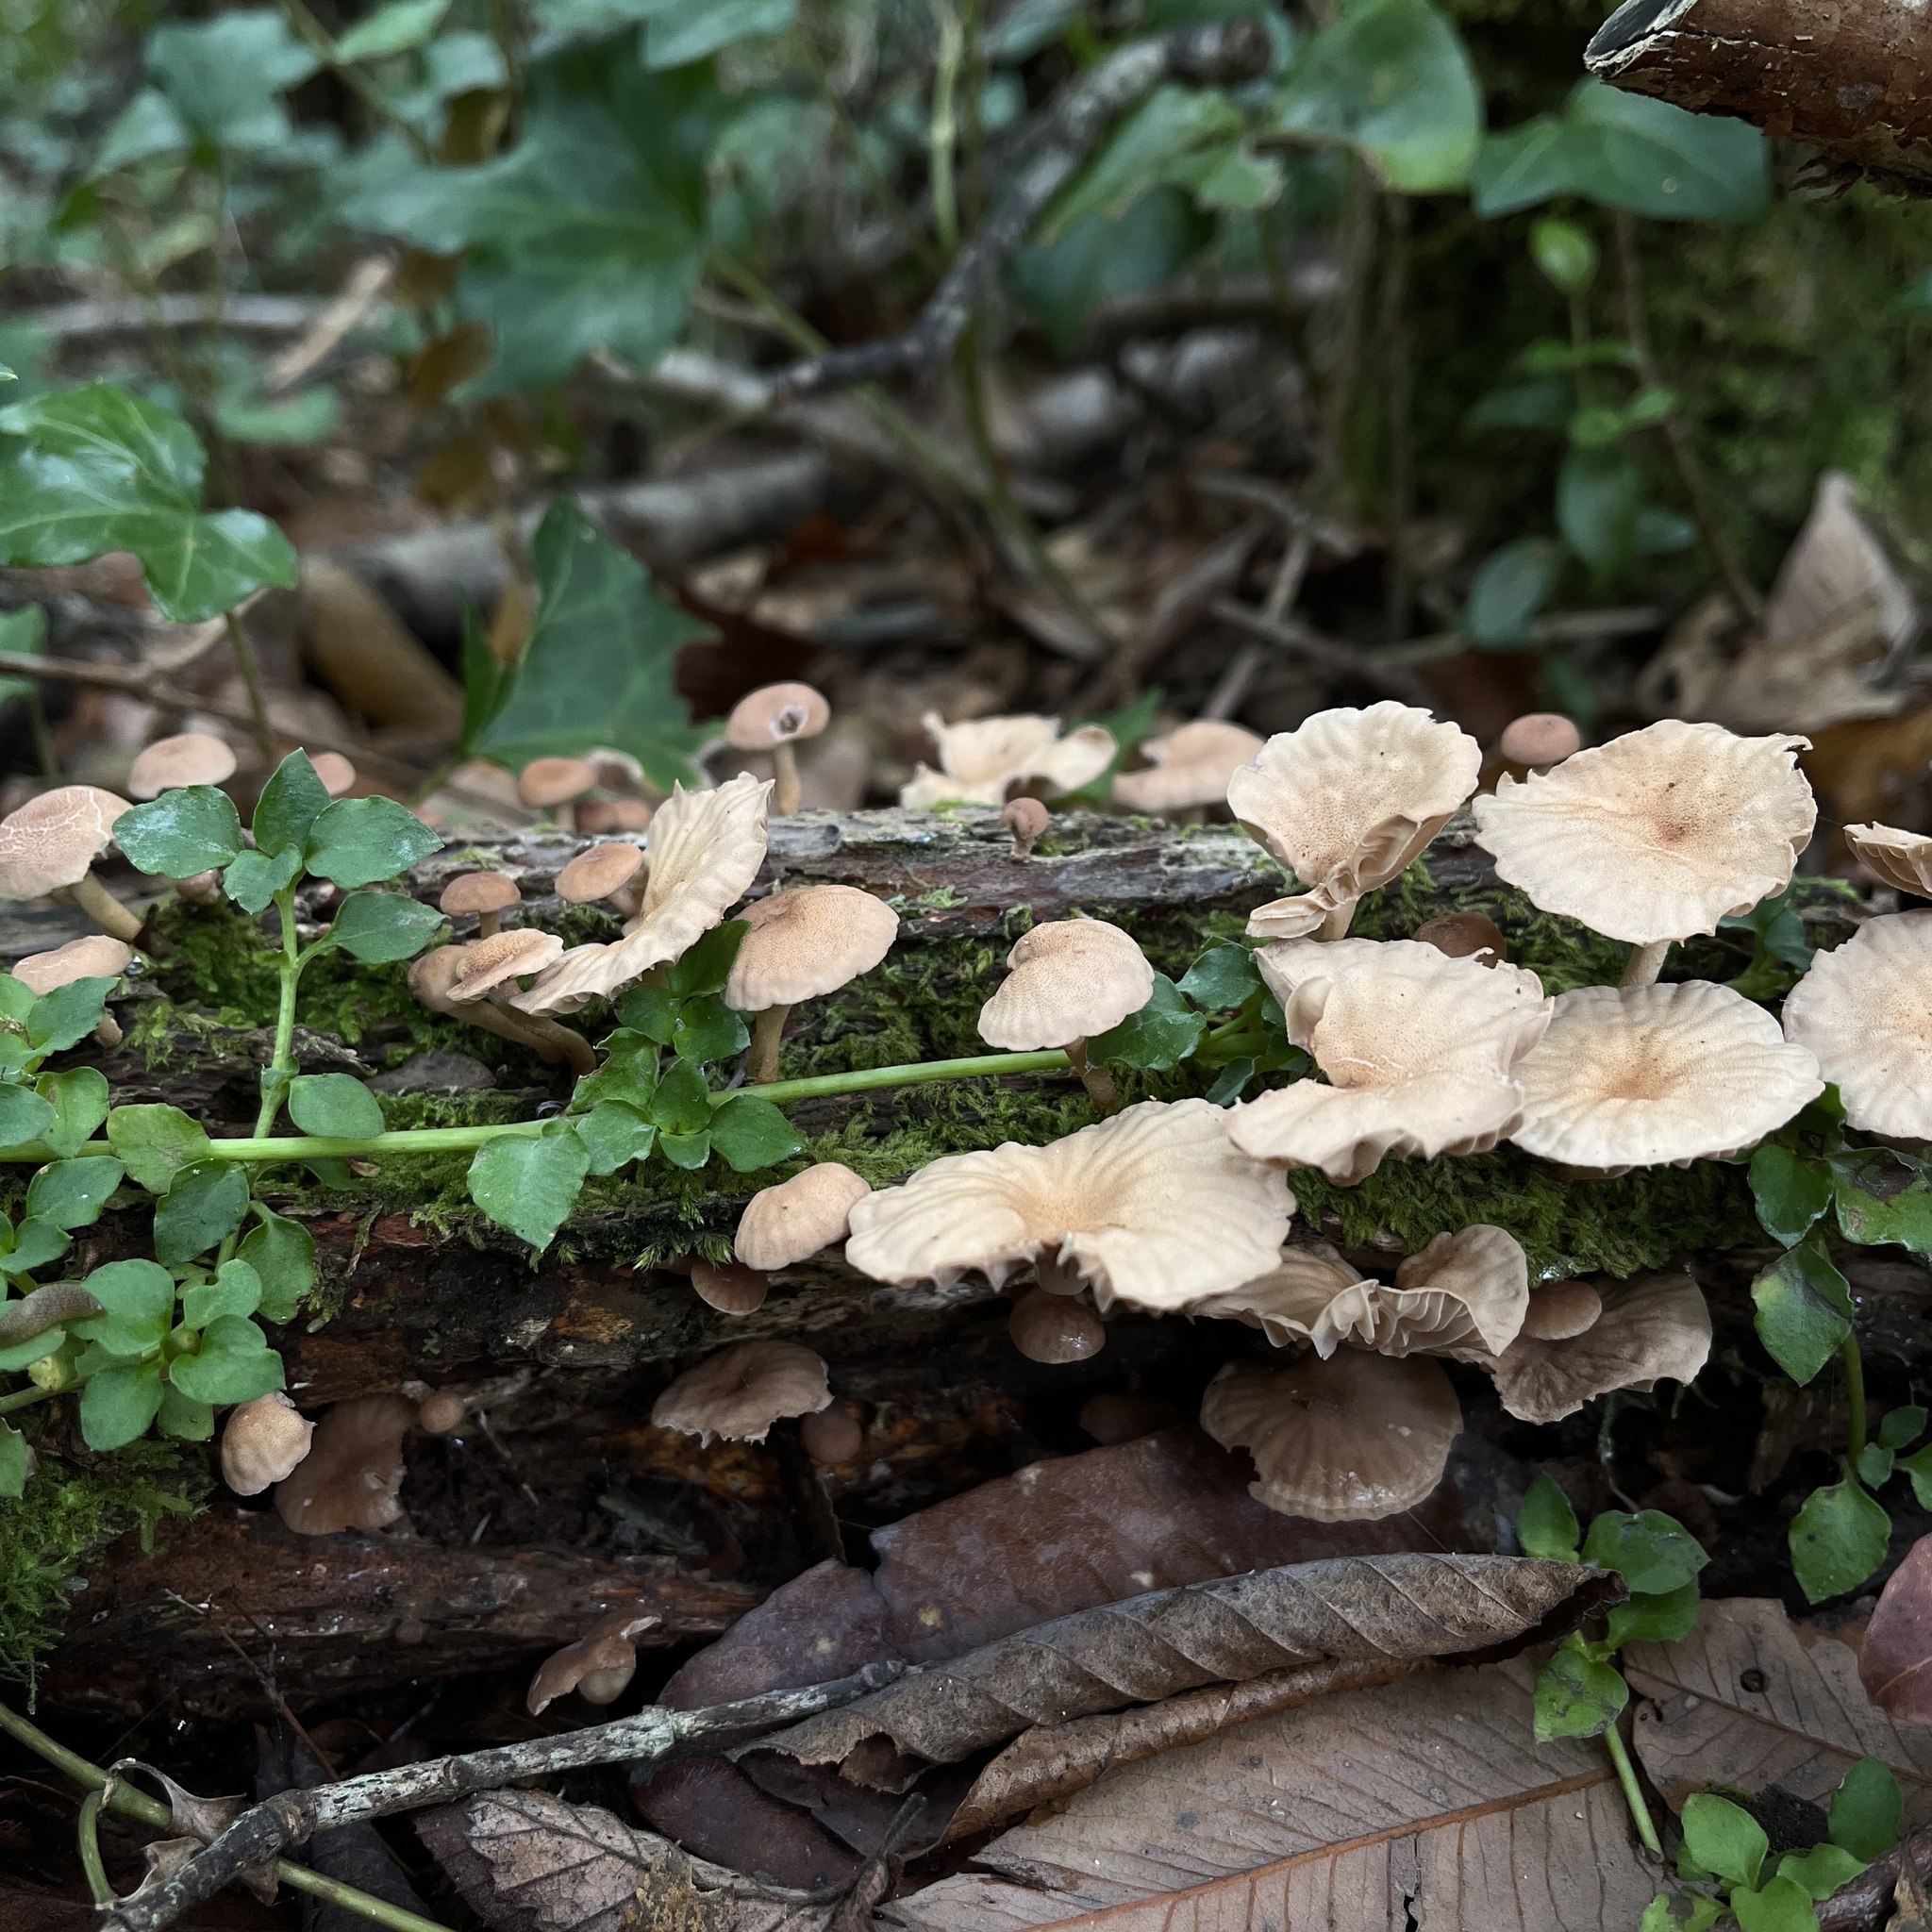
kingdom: Fungi
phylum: Basidiomycota
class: Agaricomycetes
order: Agaricales
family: Omphalotaceae
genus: Marasmiellus
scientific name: Marasmiellus alliiodorus
